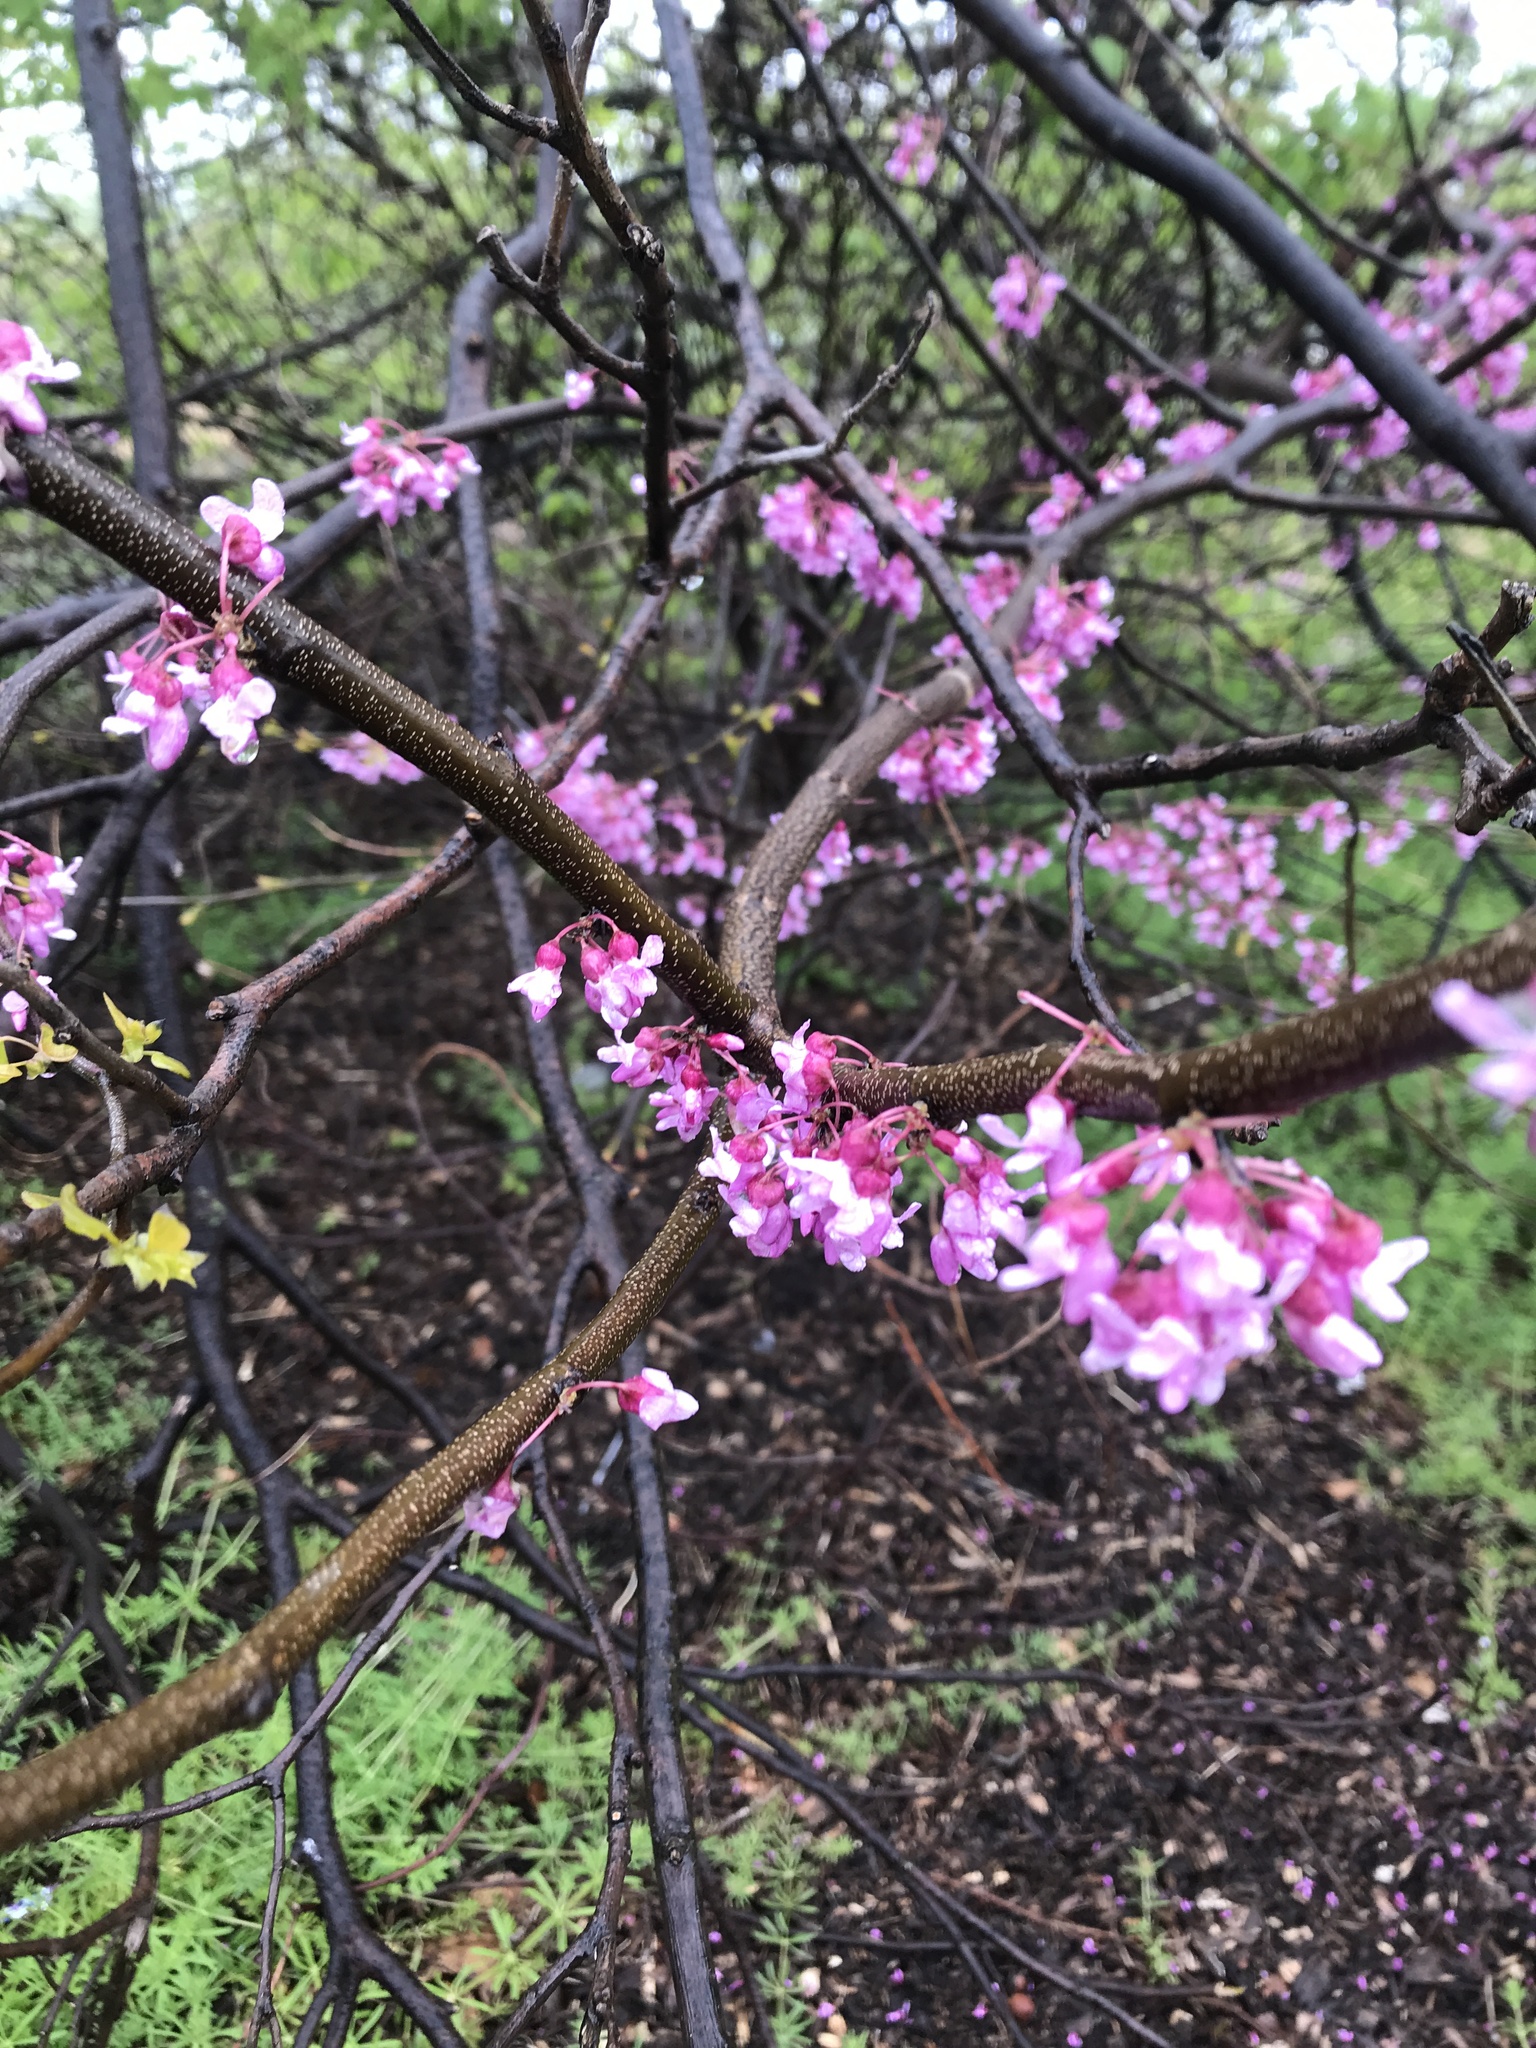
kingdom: Plantae
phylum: Tracheophyta
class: Magnoliopsida
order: Fabales
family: Fabaceae
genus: Cercis
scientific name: Cercis canadensis
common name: Eastern redbud
